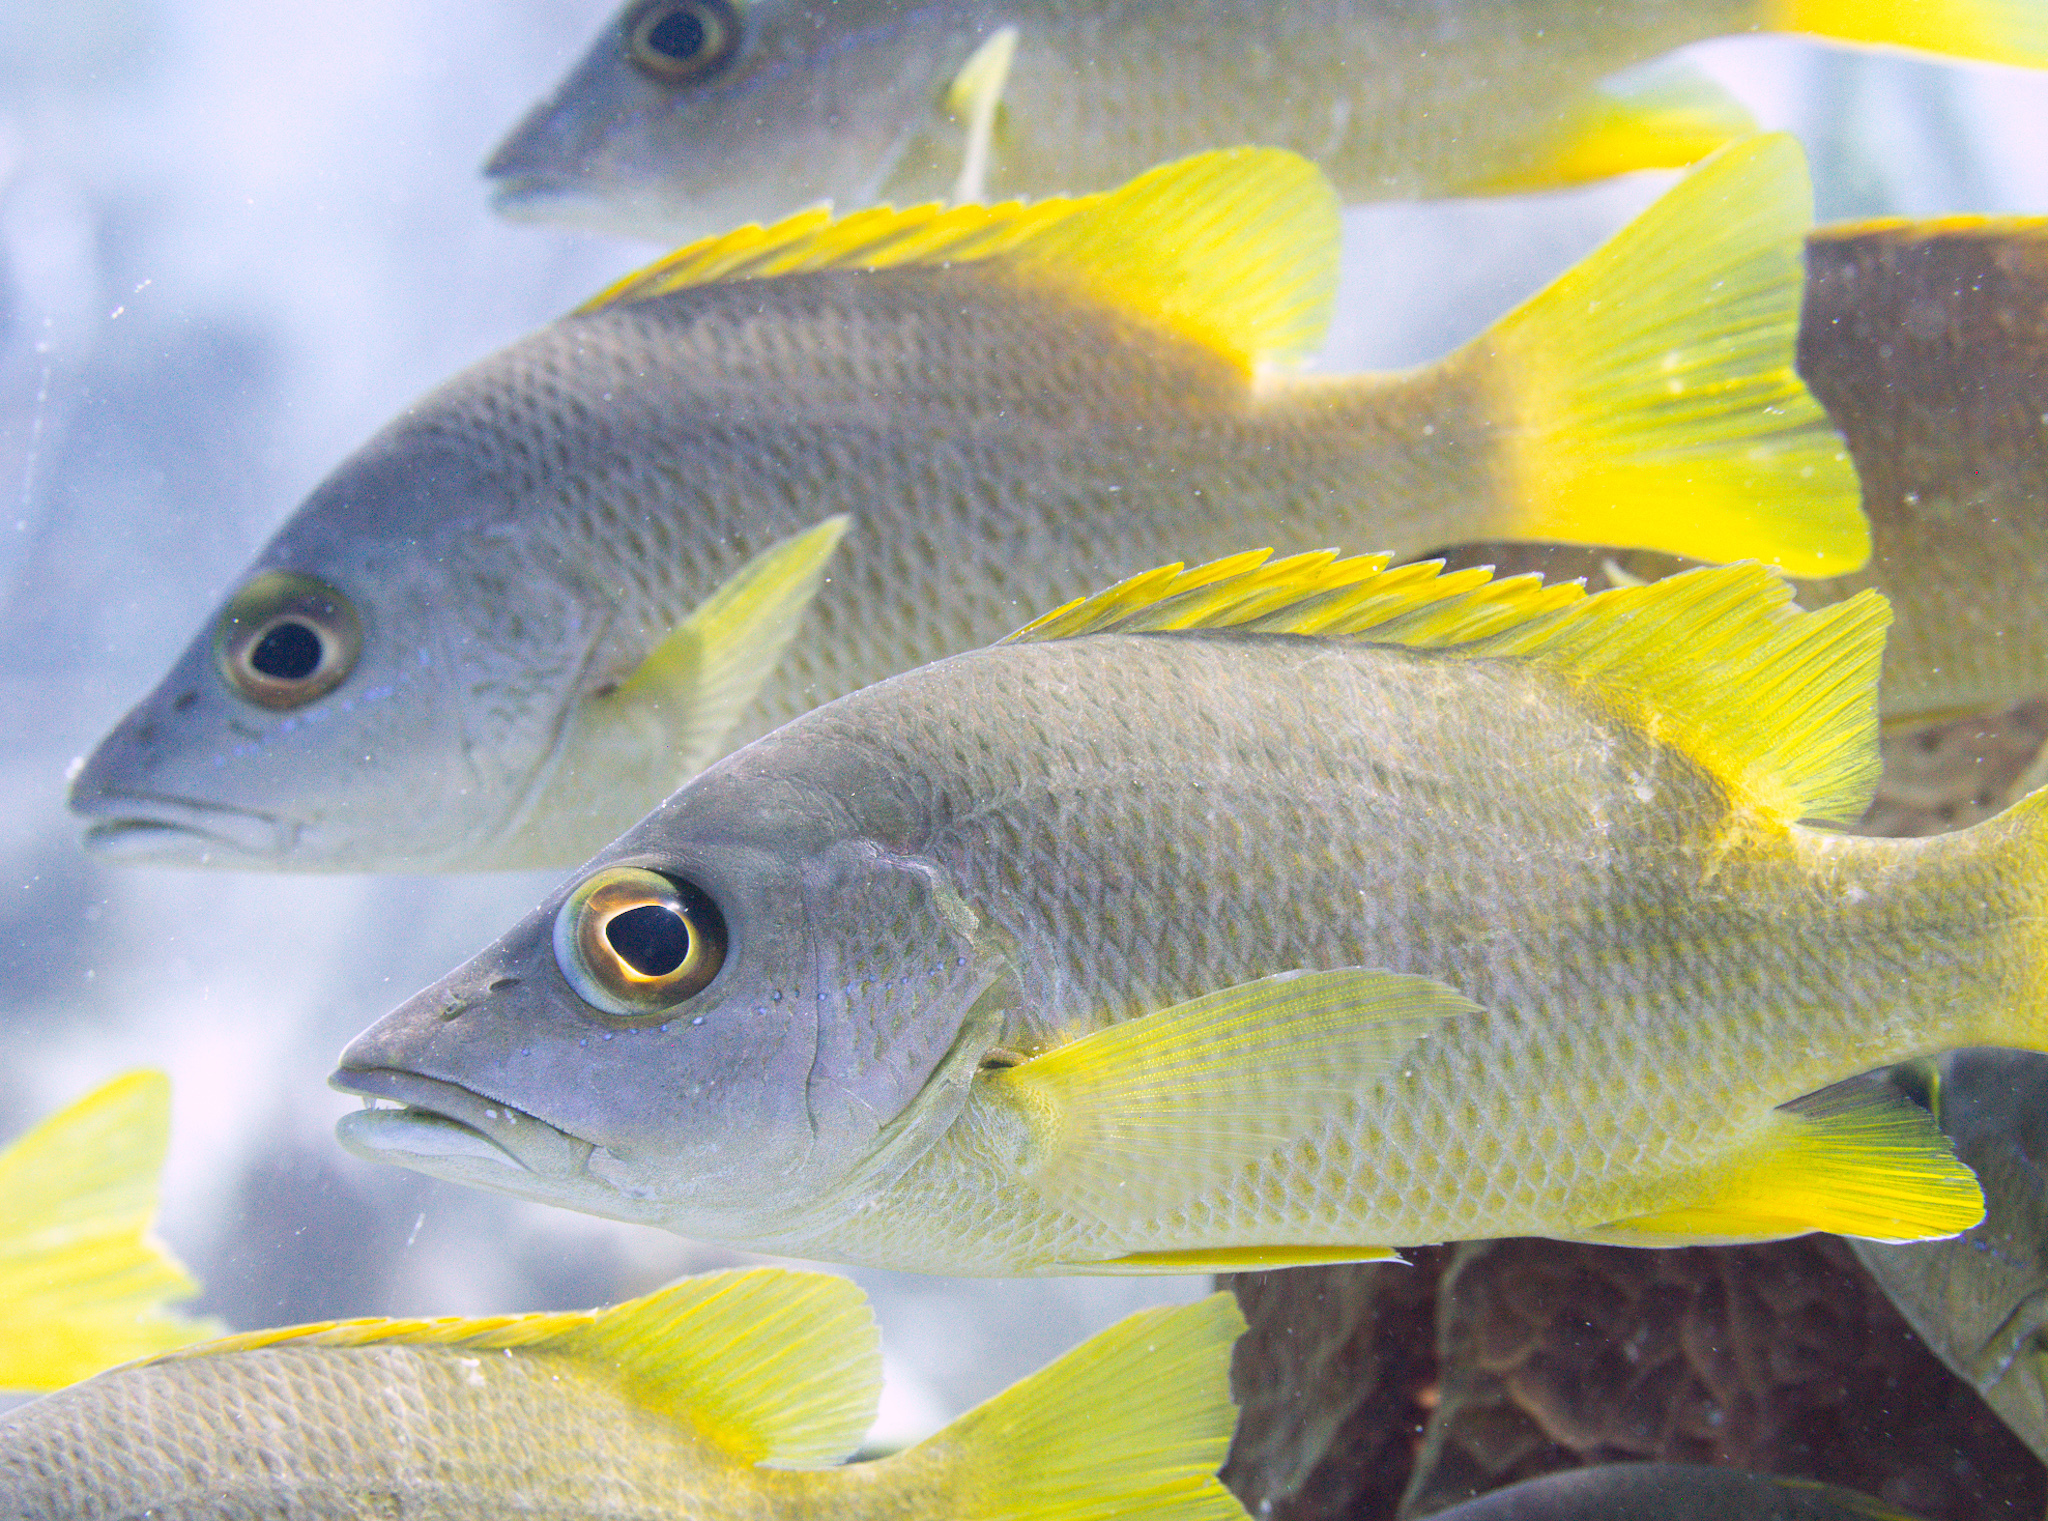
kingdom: Animalia
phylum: Chordata
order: Perciformes
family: Lutjanidae
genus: Lutjanus
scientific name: Lutjanus apodus
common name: Schoolmaster
